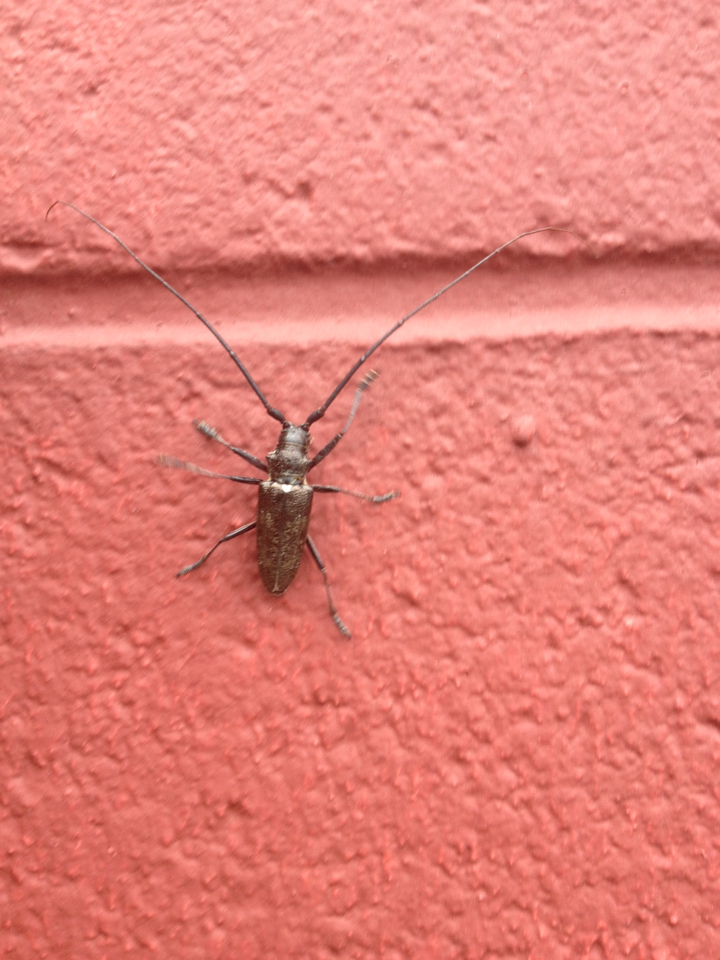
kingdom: Animalia
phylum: Arthropoda
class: Insecta
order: Coleoptera
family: Cerambycidae
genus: Monochamus
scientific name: Monochamus scutellatus
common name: White-spotted sawyer beetle
